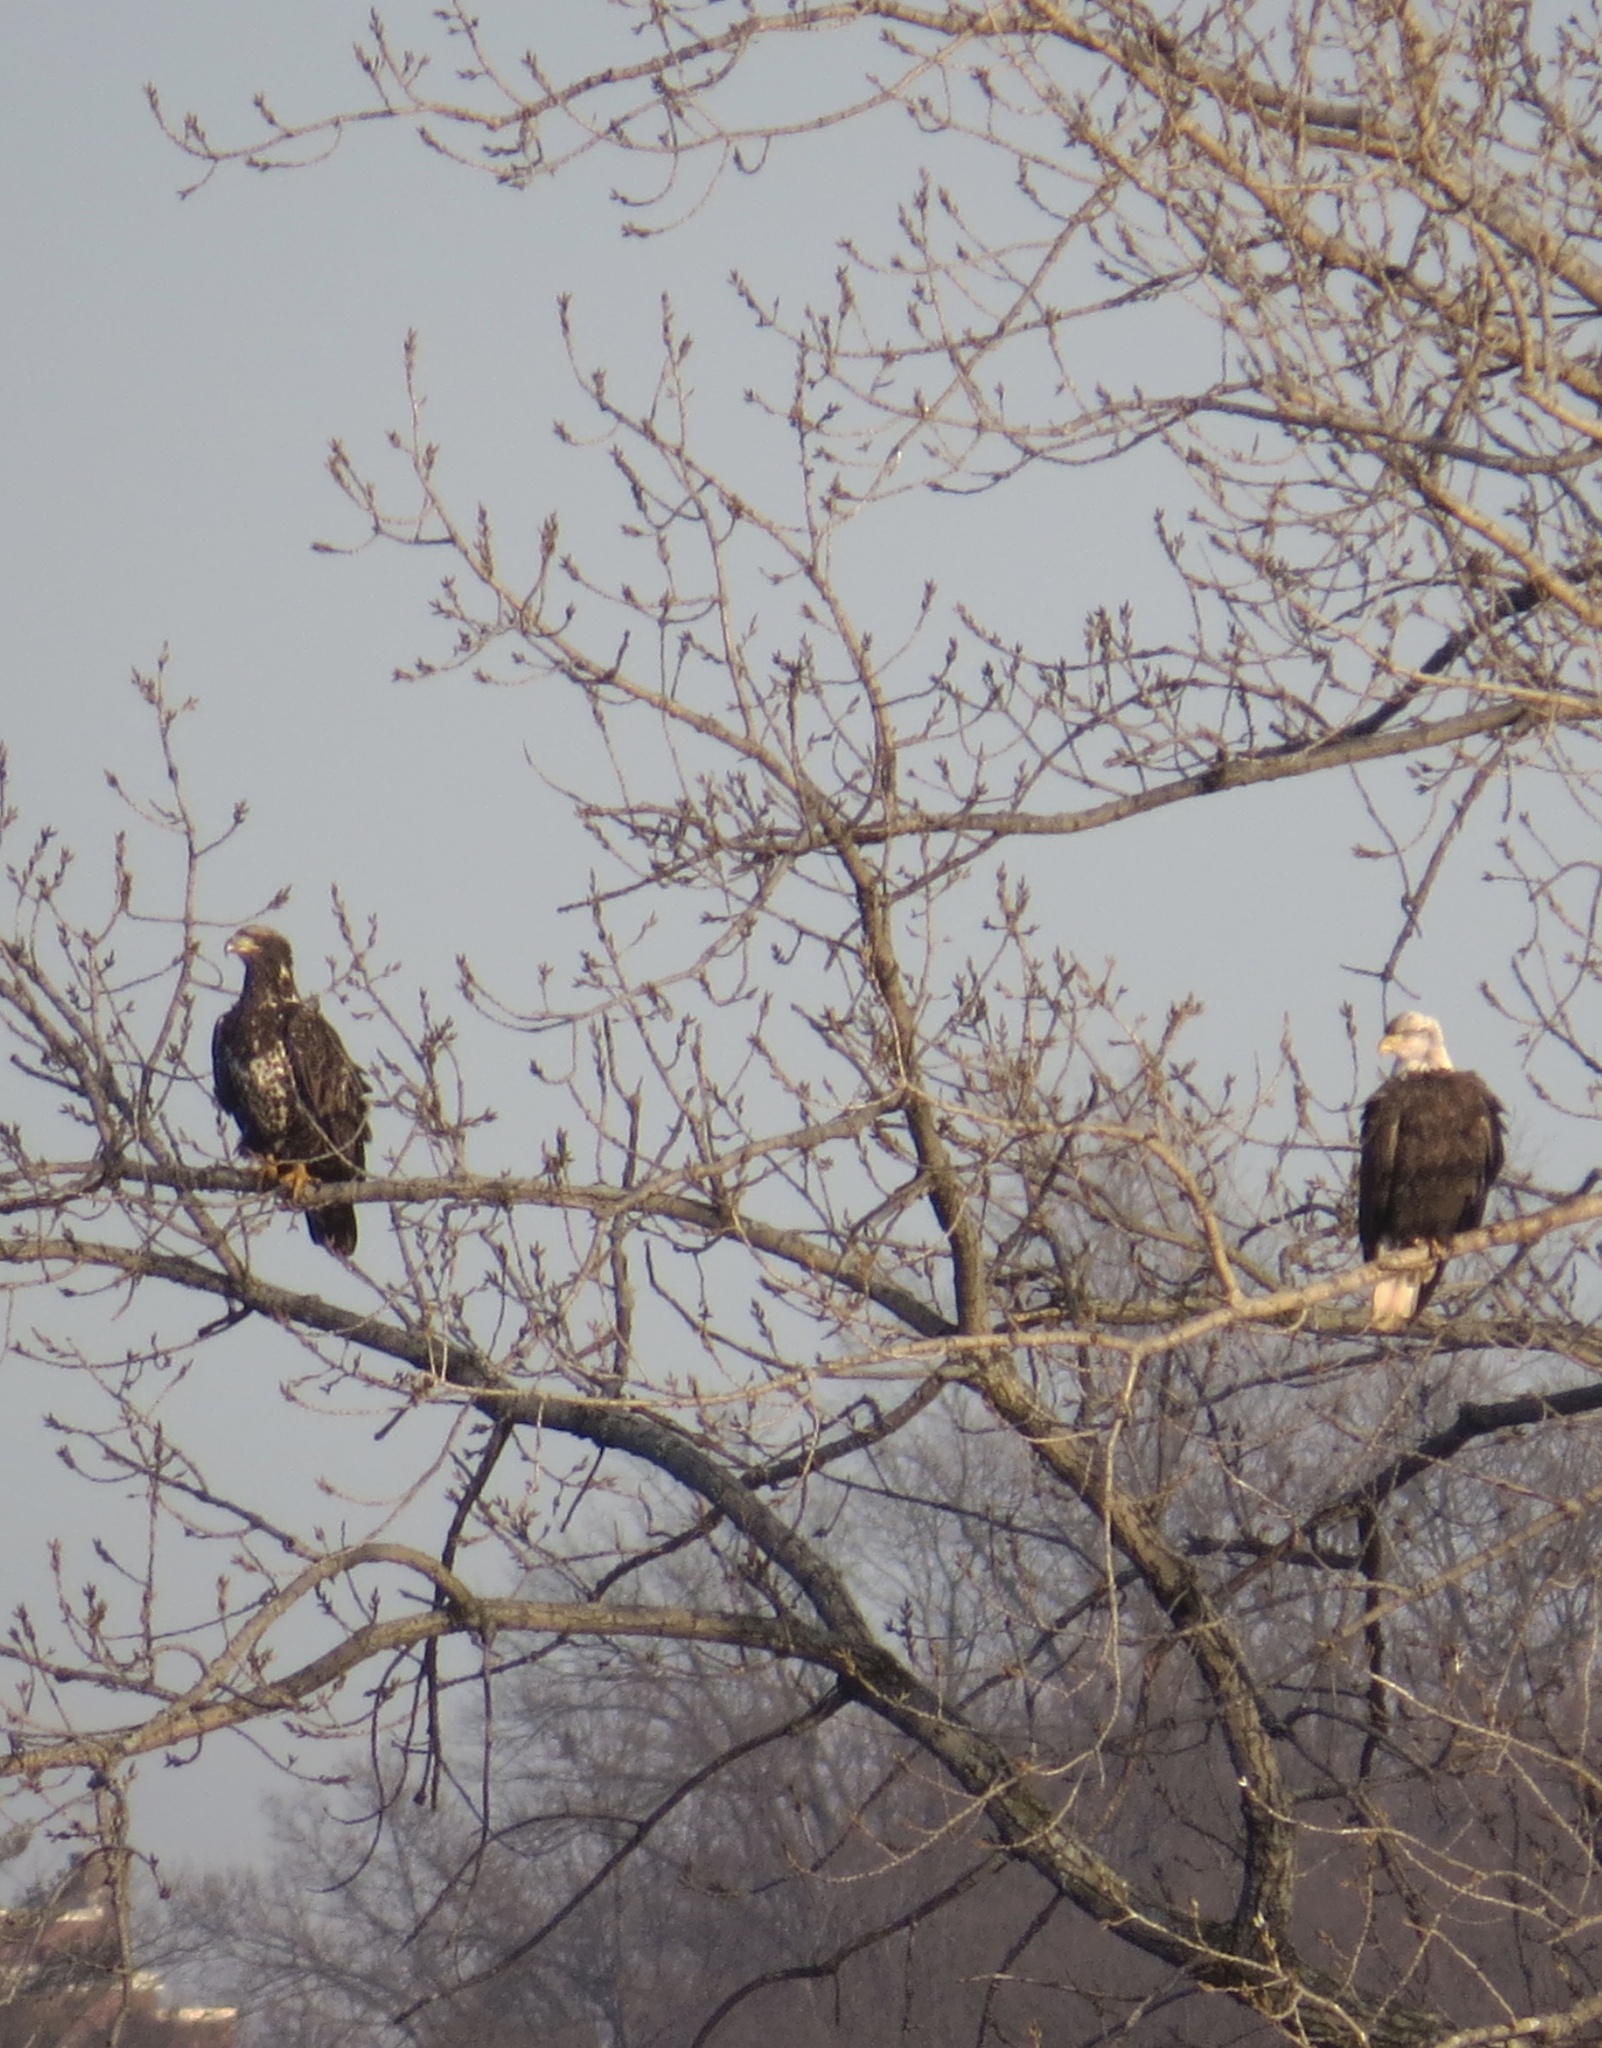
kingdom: Animalia
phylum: Chordata
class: Aves
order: Accipitriformes
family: Accipitridae
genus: Haliaeetus
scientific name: Haliaeetus leucocephalus
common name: Bald eagle
